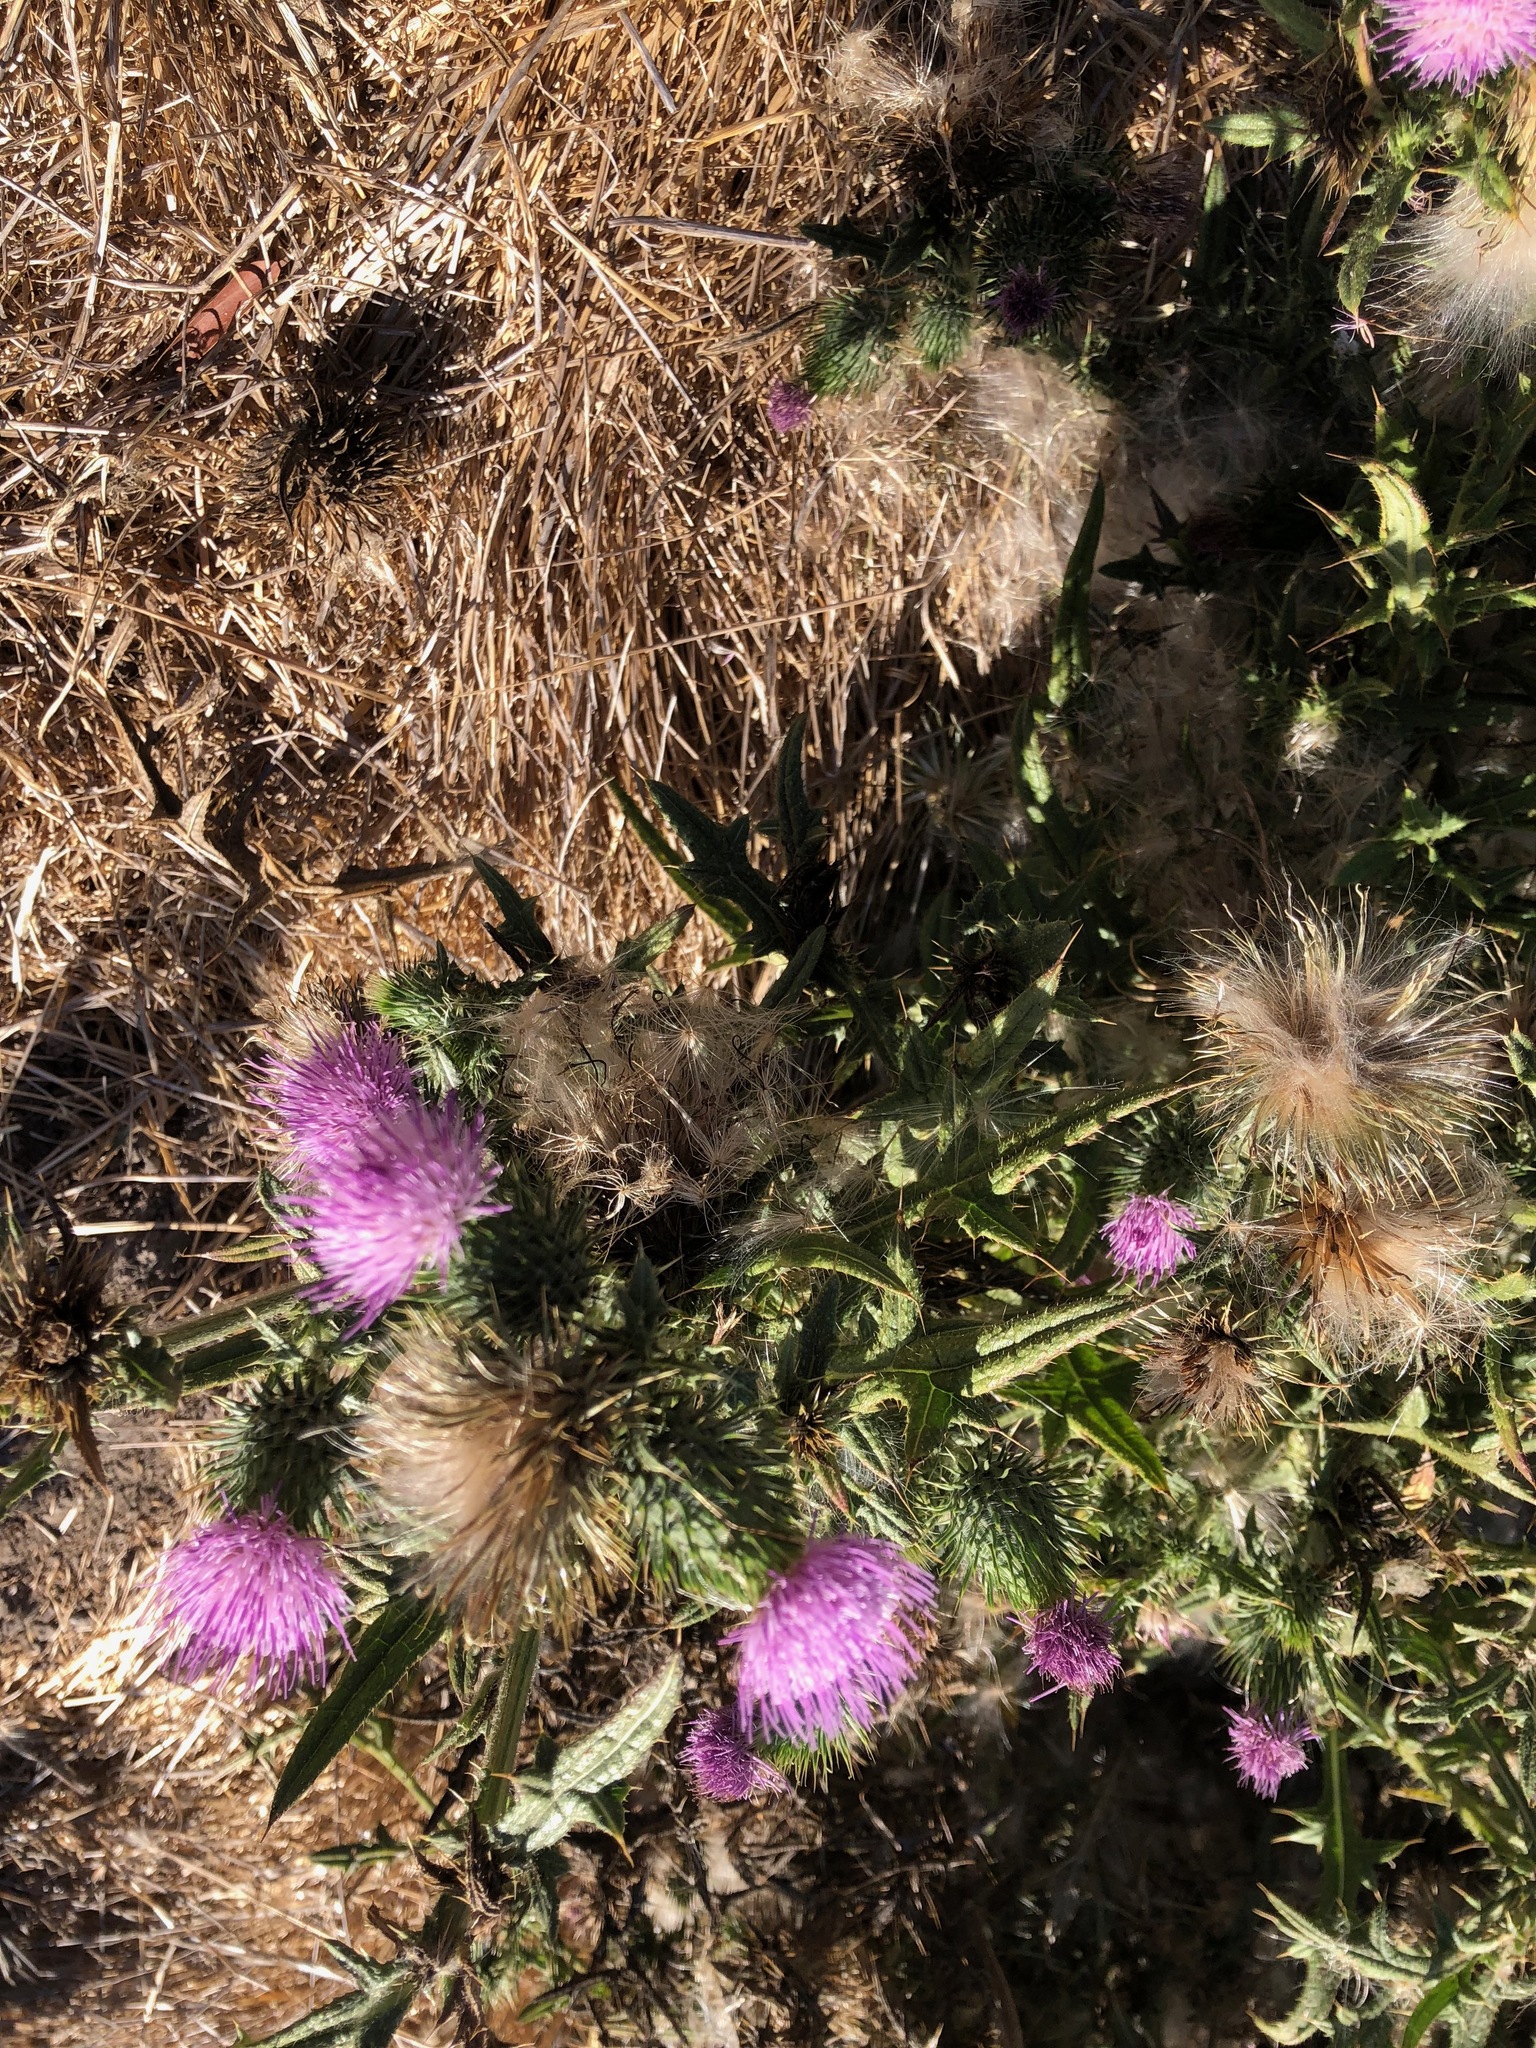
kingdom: Plantae
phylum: Tracheophyta
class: Magnoliopsida
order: Asterales
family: Asteraceae
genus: Cirsium
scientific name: Cirsium vulgare
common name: Bull thistle
